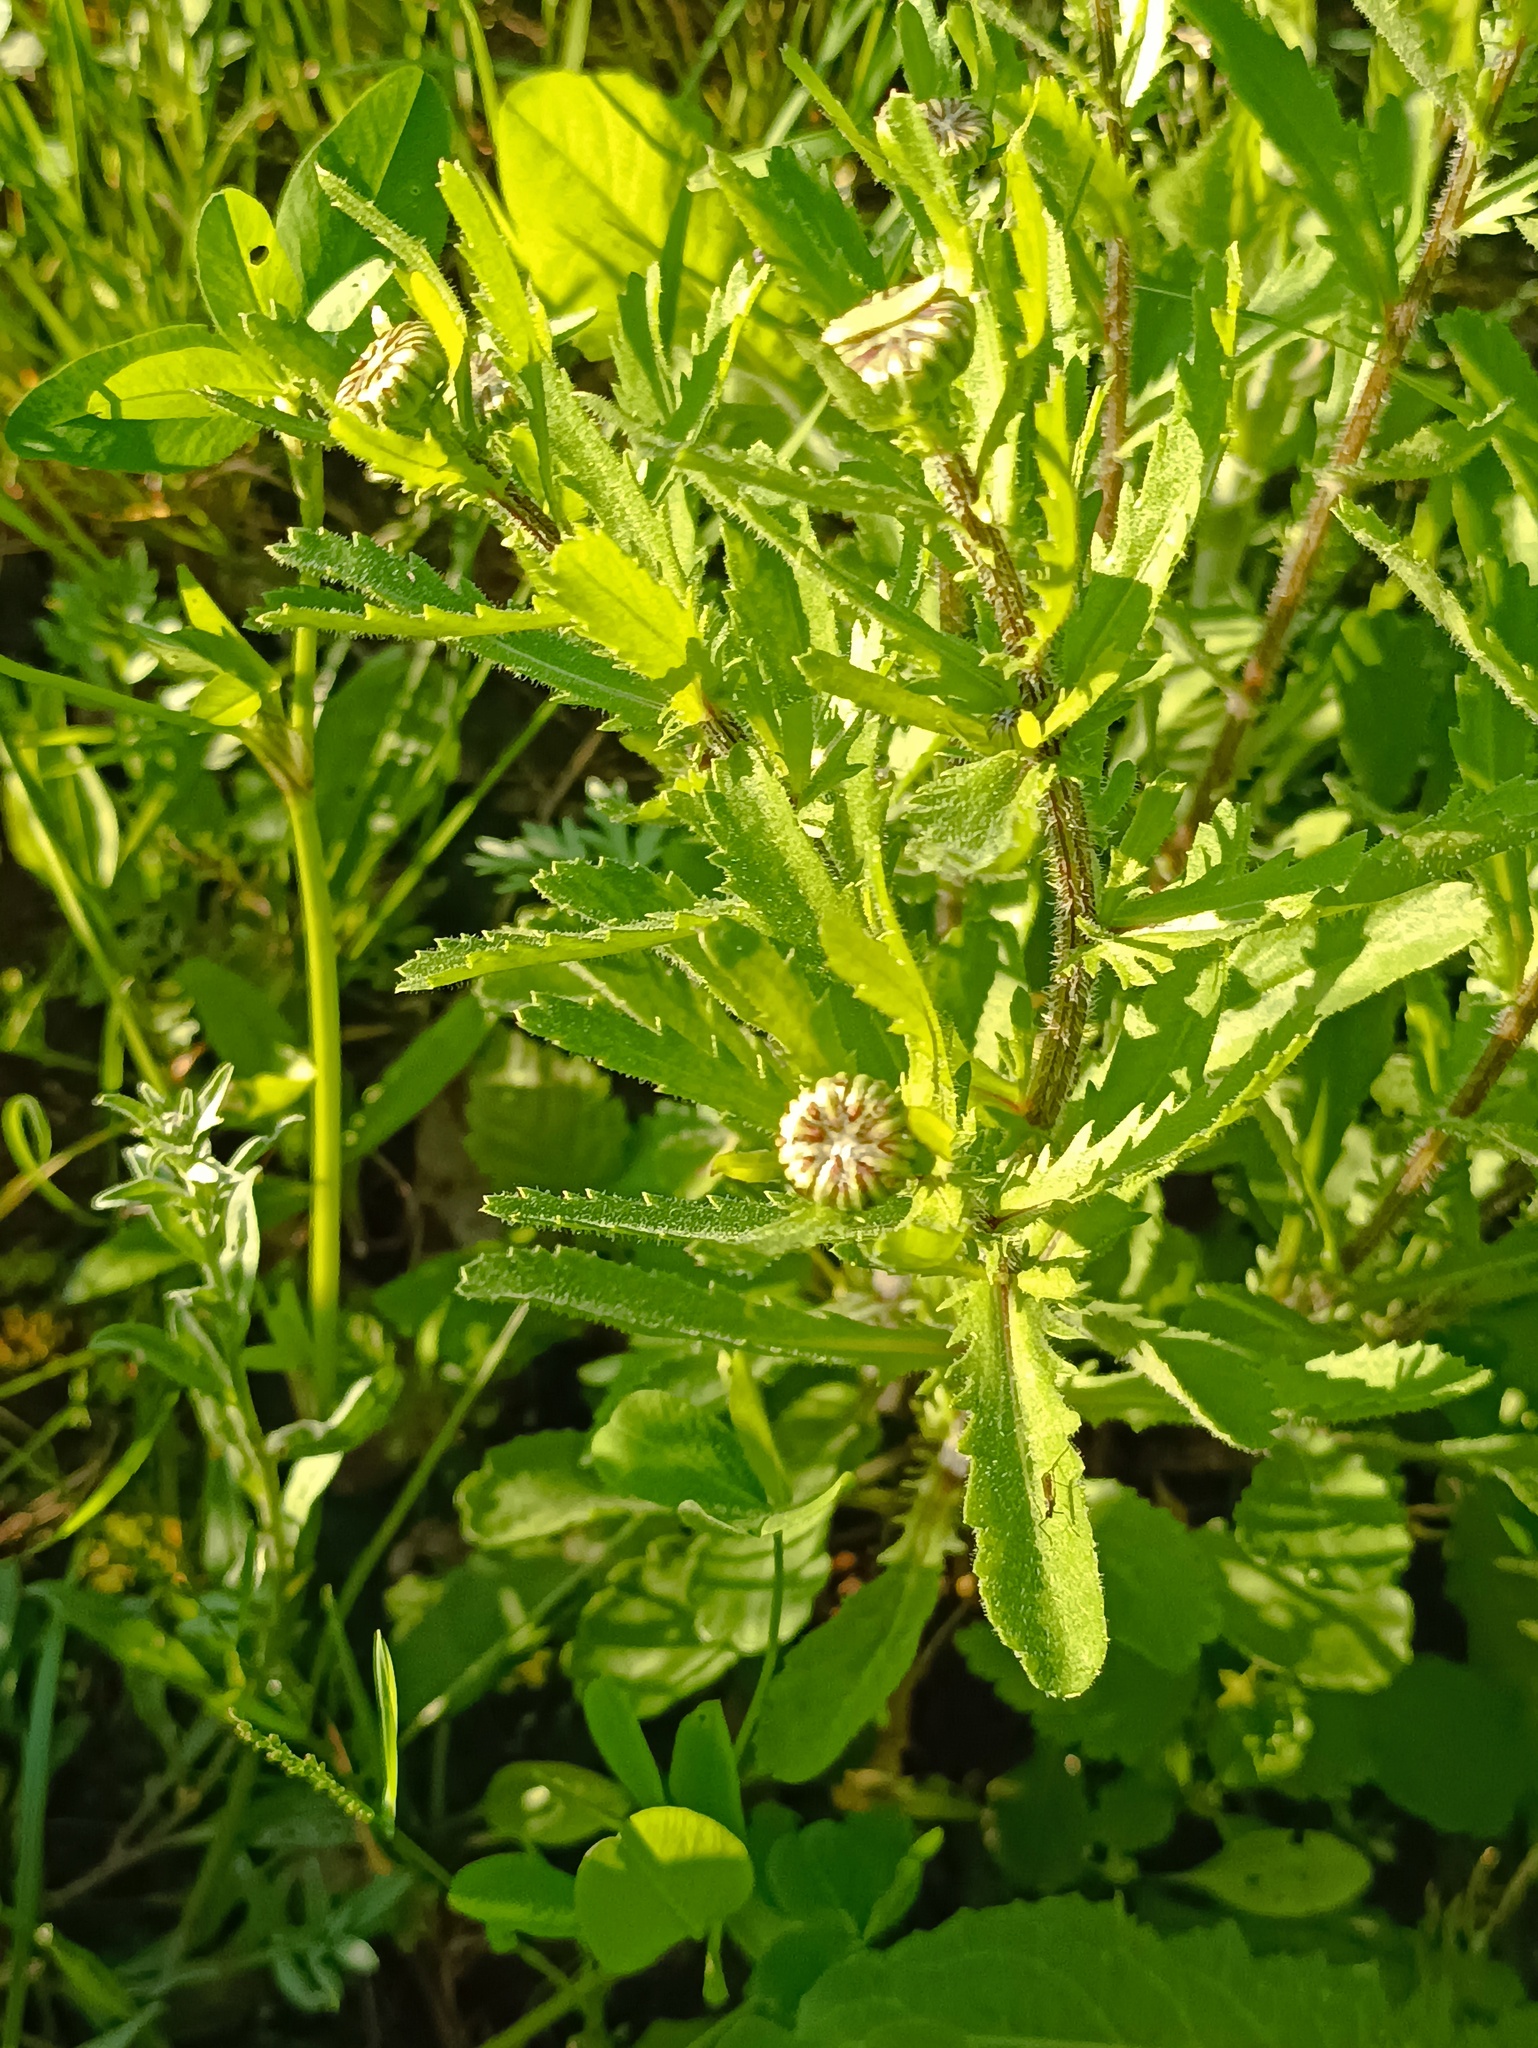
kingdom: Plantae
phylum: Tracheophyta
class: Magnoliopsida
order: Asterales
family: Asteraceae
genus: Leucanthemum
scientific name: Leucanthemum ircutianum
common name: Daisy
